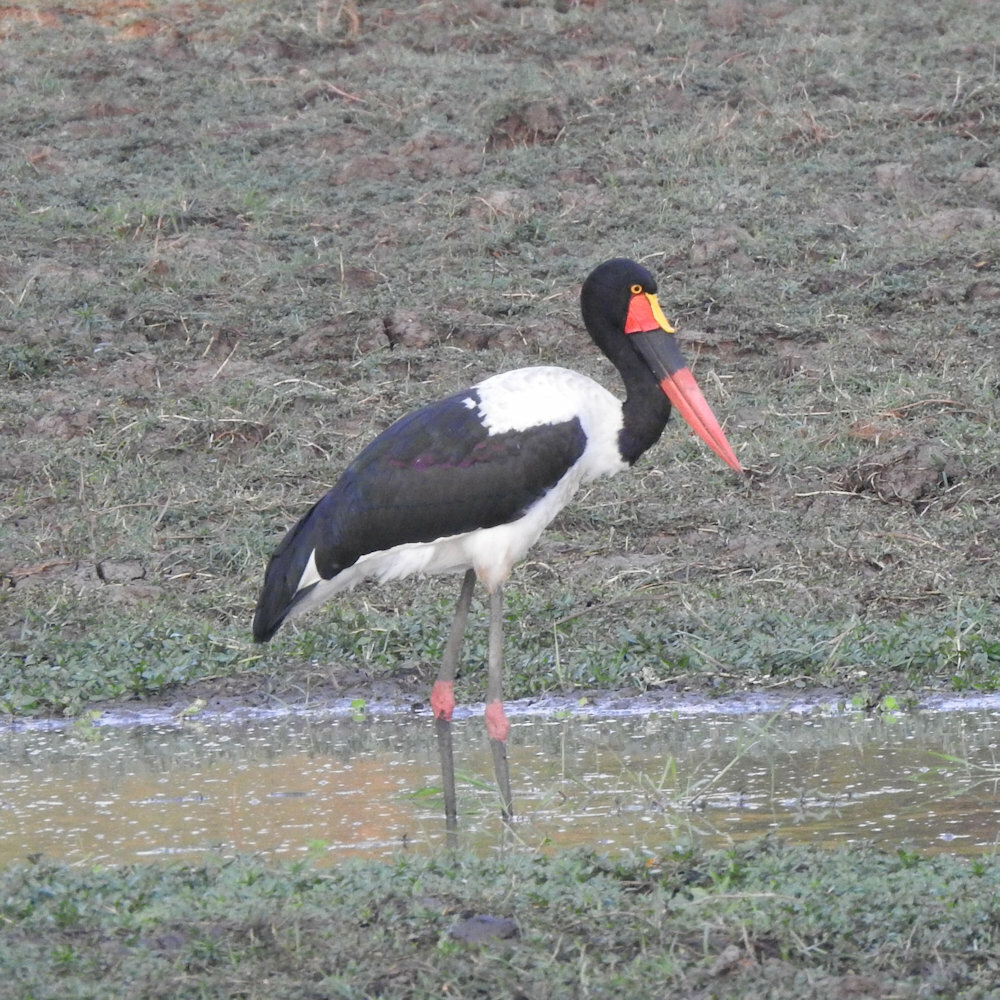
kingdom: Animalia
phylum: Chordata
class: Aves
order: Ciconiiformes
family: Ciconiidae
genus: Ephippiorhynchus
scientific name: Ephippiorhynchus senegalensis
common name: Saddle-billed stork
